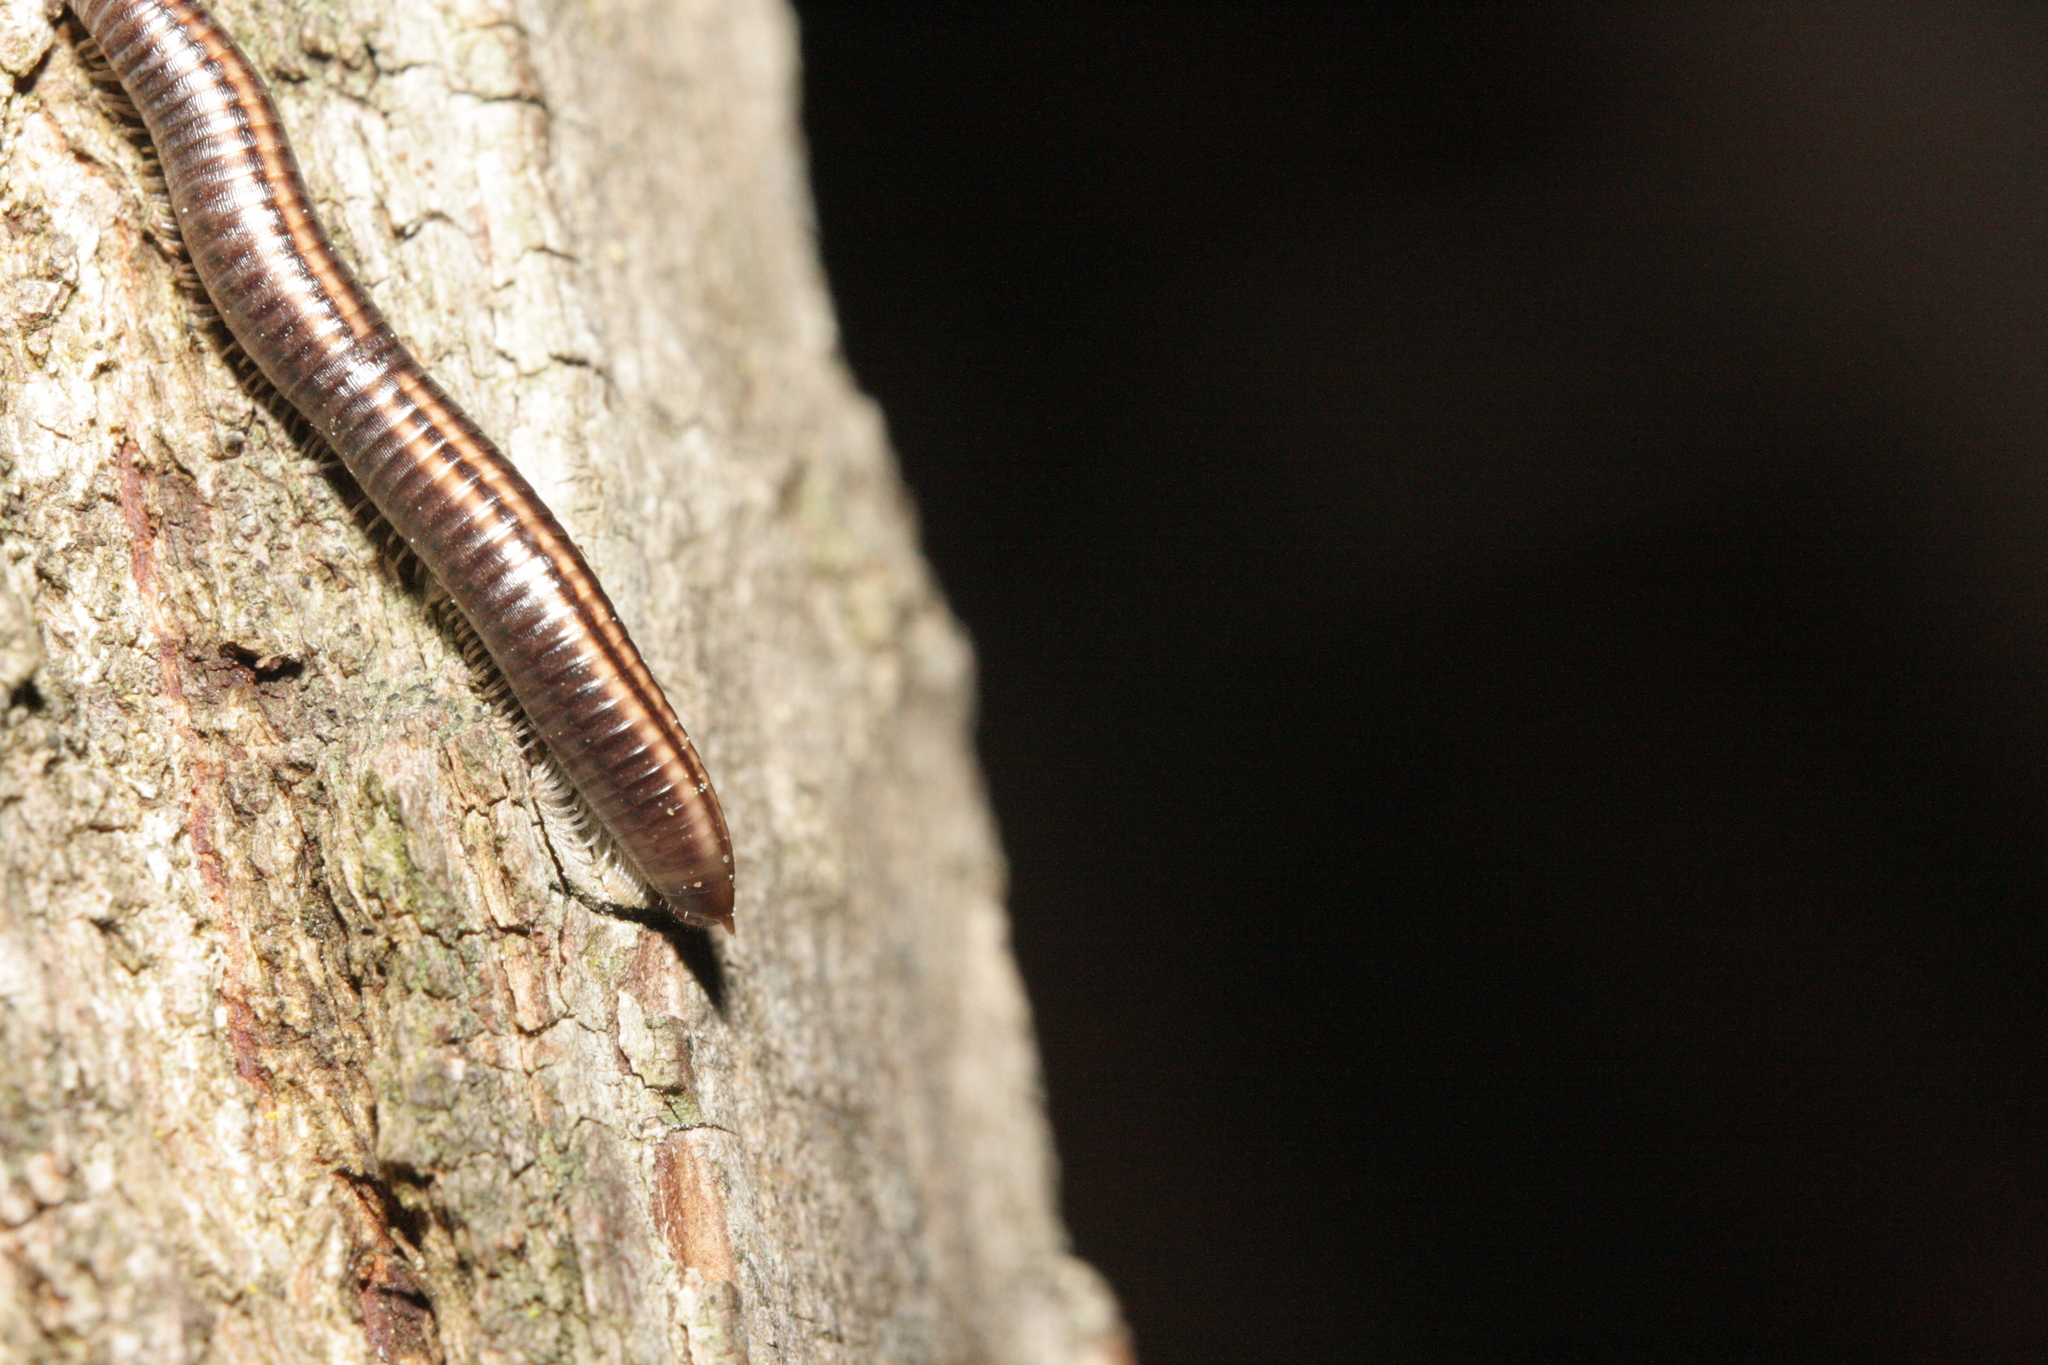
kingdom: Animalia
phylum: Arthropoda
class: Diplopoda
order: Julida
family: Julidae
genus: Ommatoiulus
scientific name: Ommatoiulus sabulosus
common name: Striped millipede
